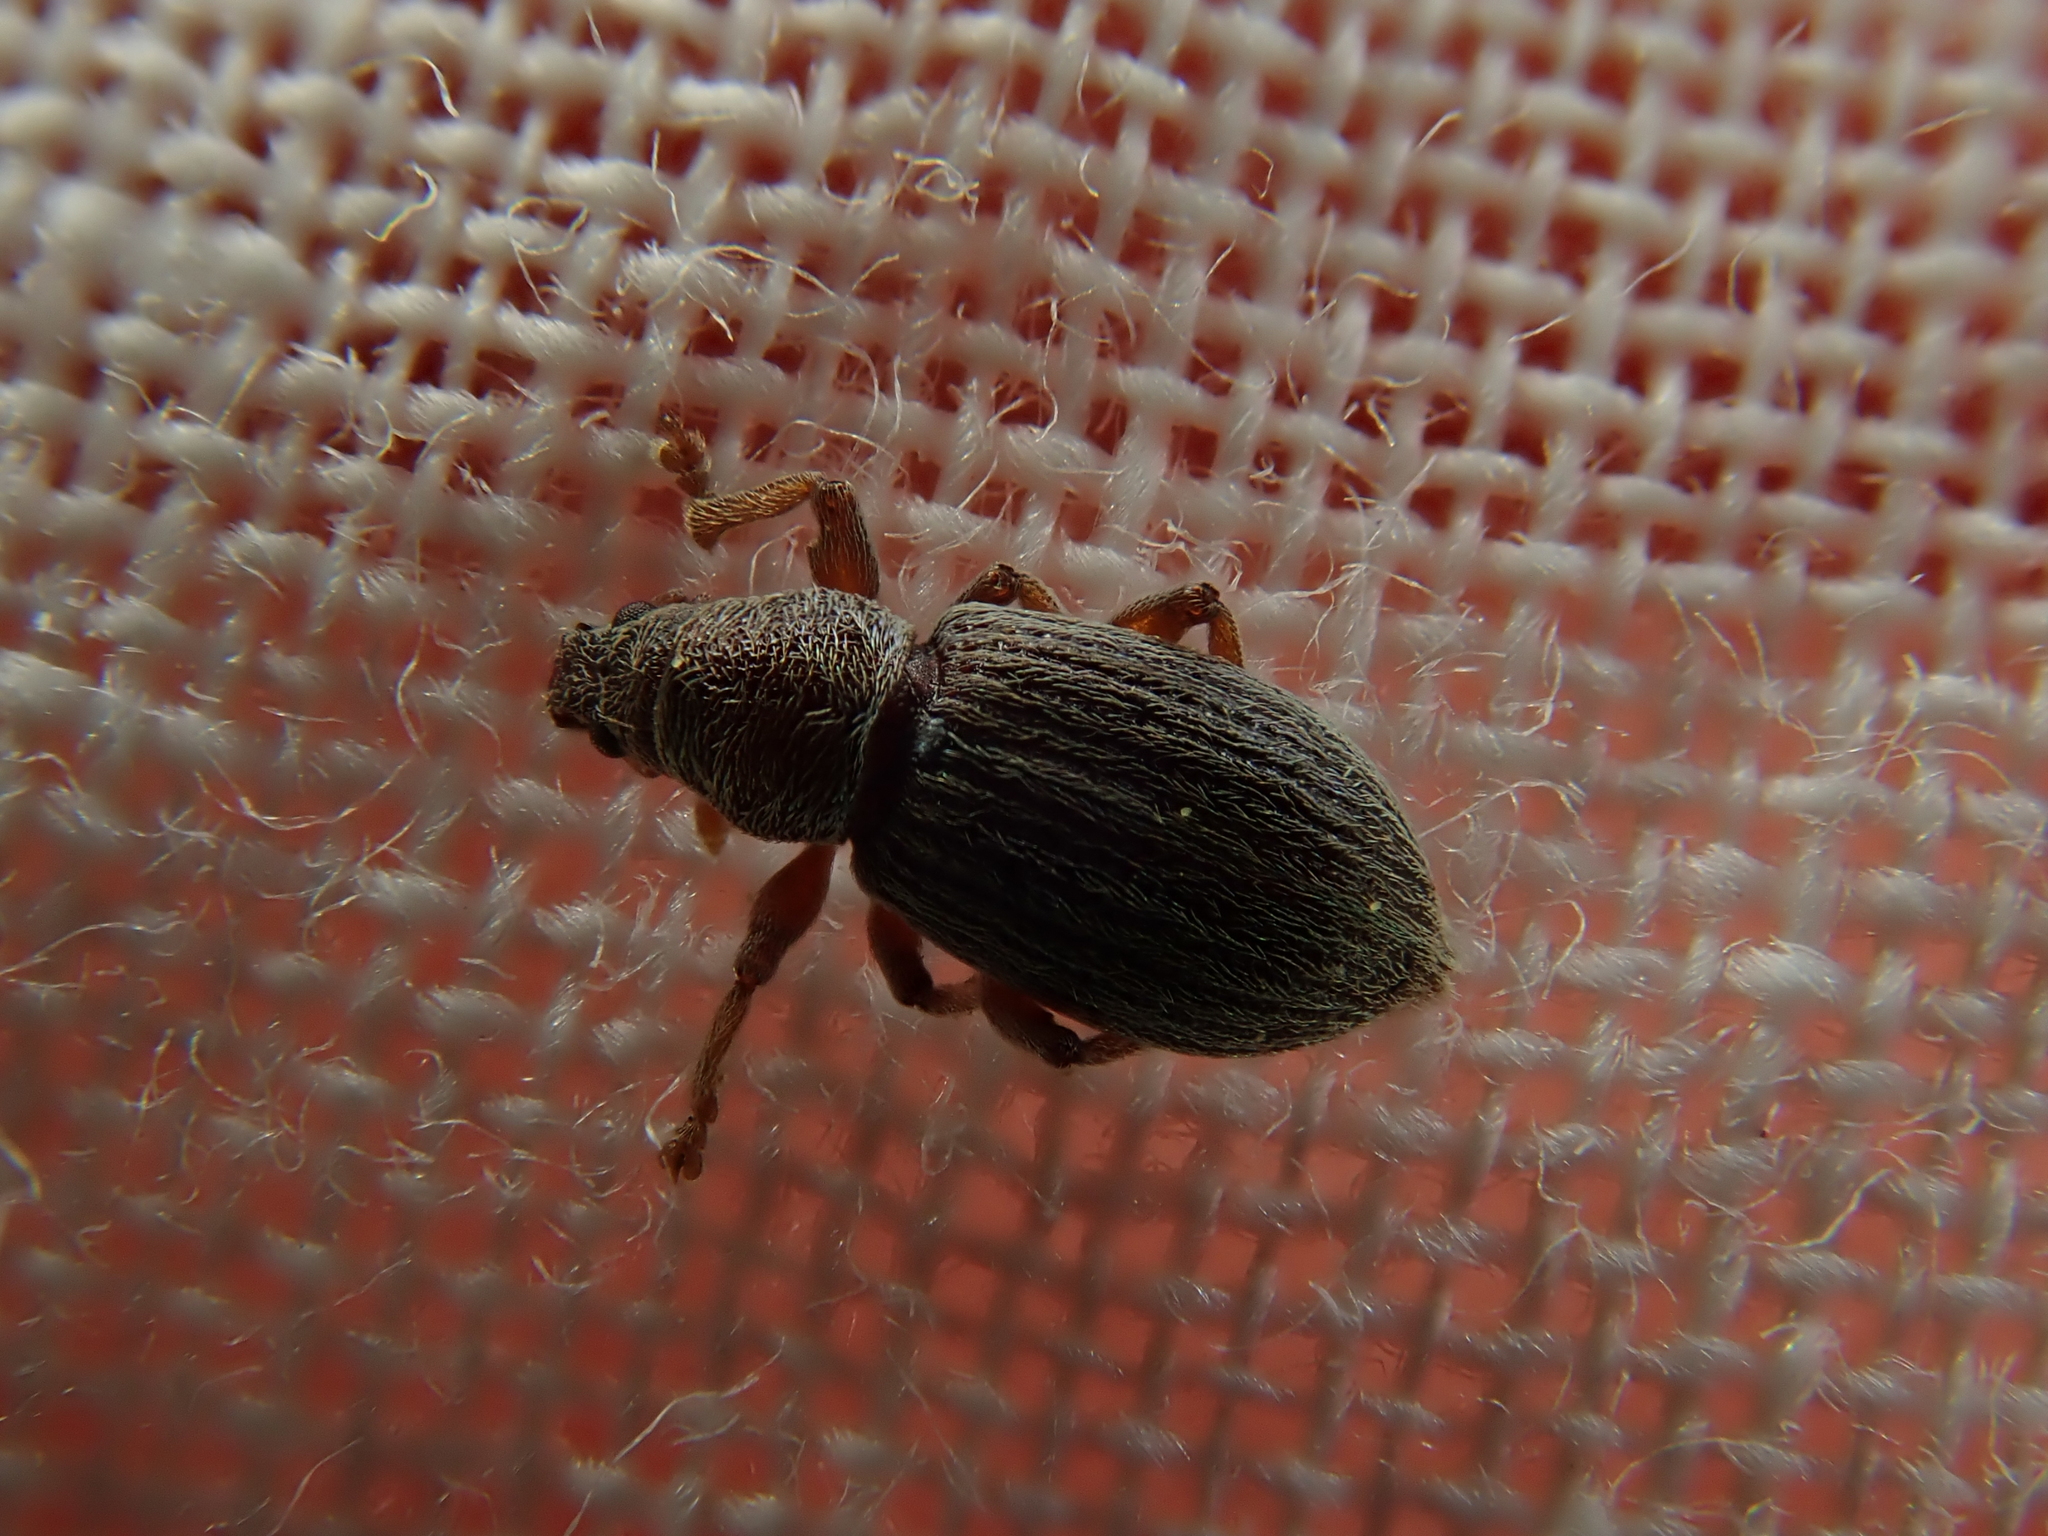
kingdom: Animalia
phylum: Arthropoda
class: Insecta
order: Coleoptera
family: Curculionidae
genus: Polydrusus
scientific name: Polydrusus marginatus
